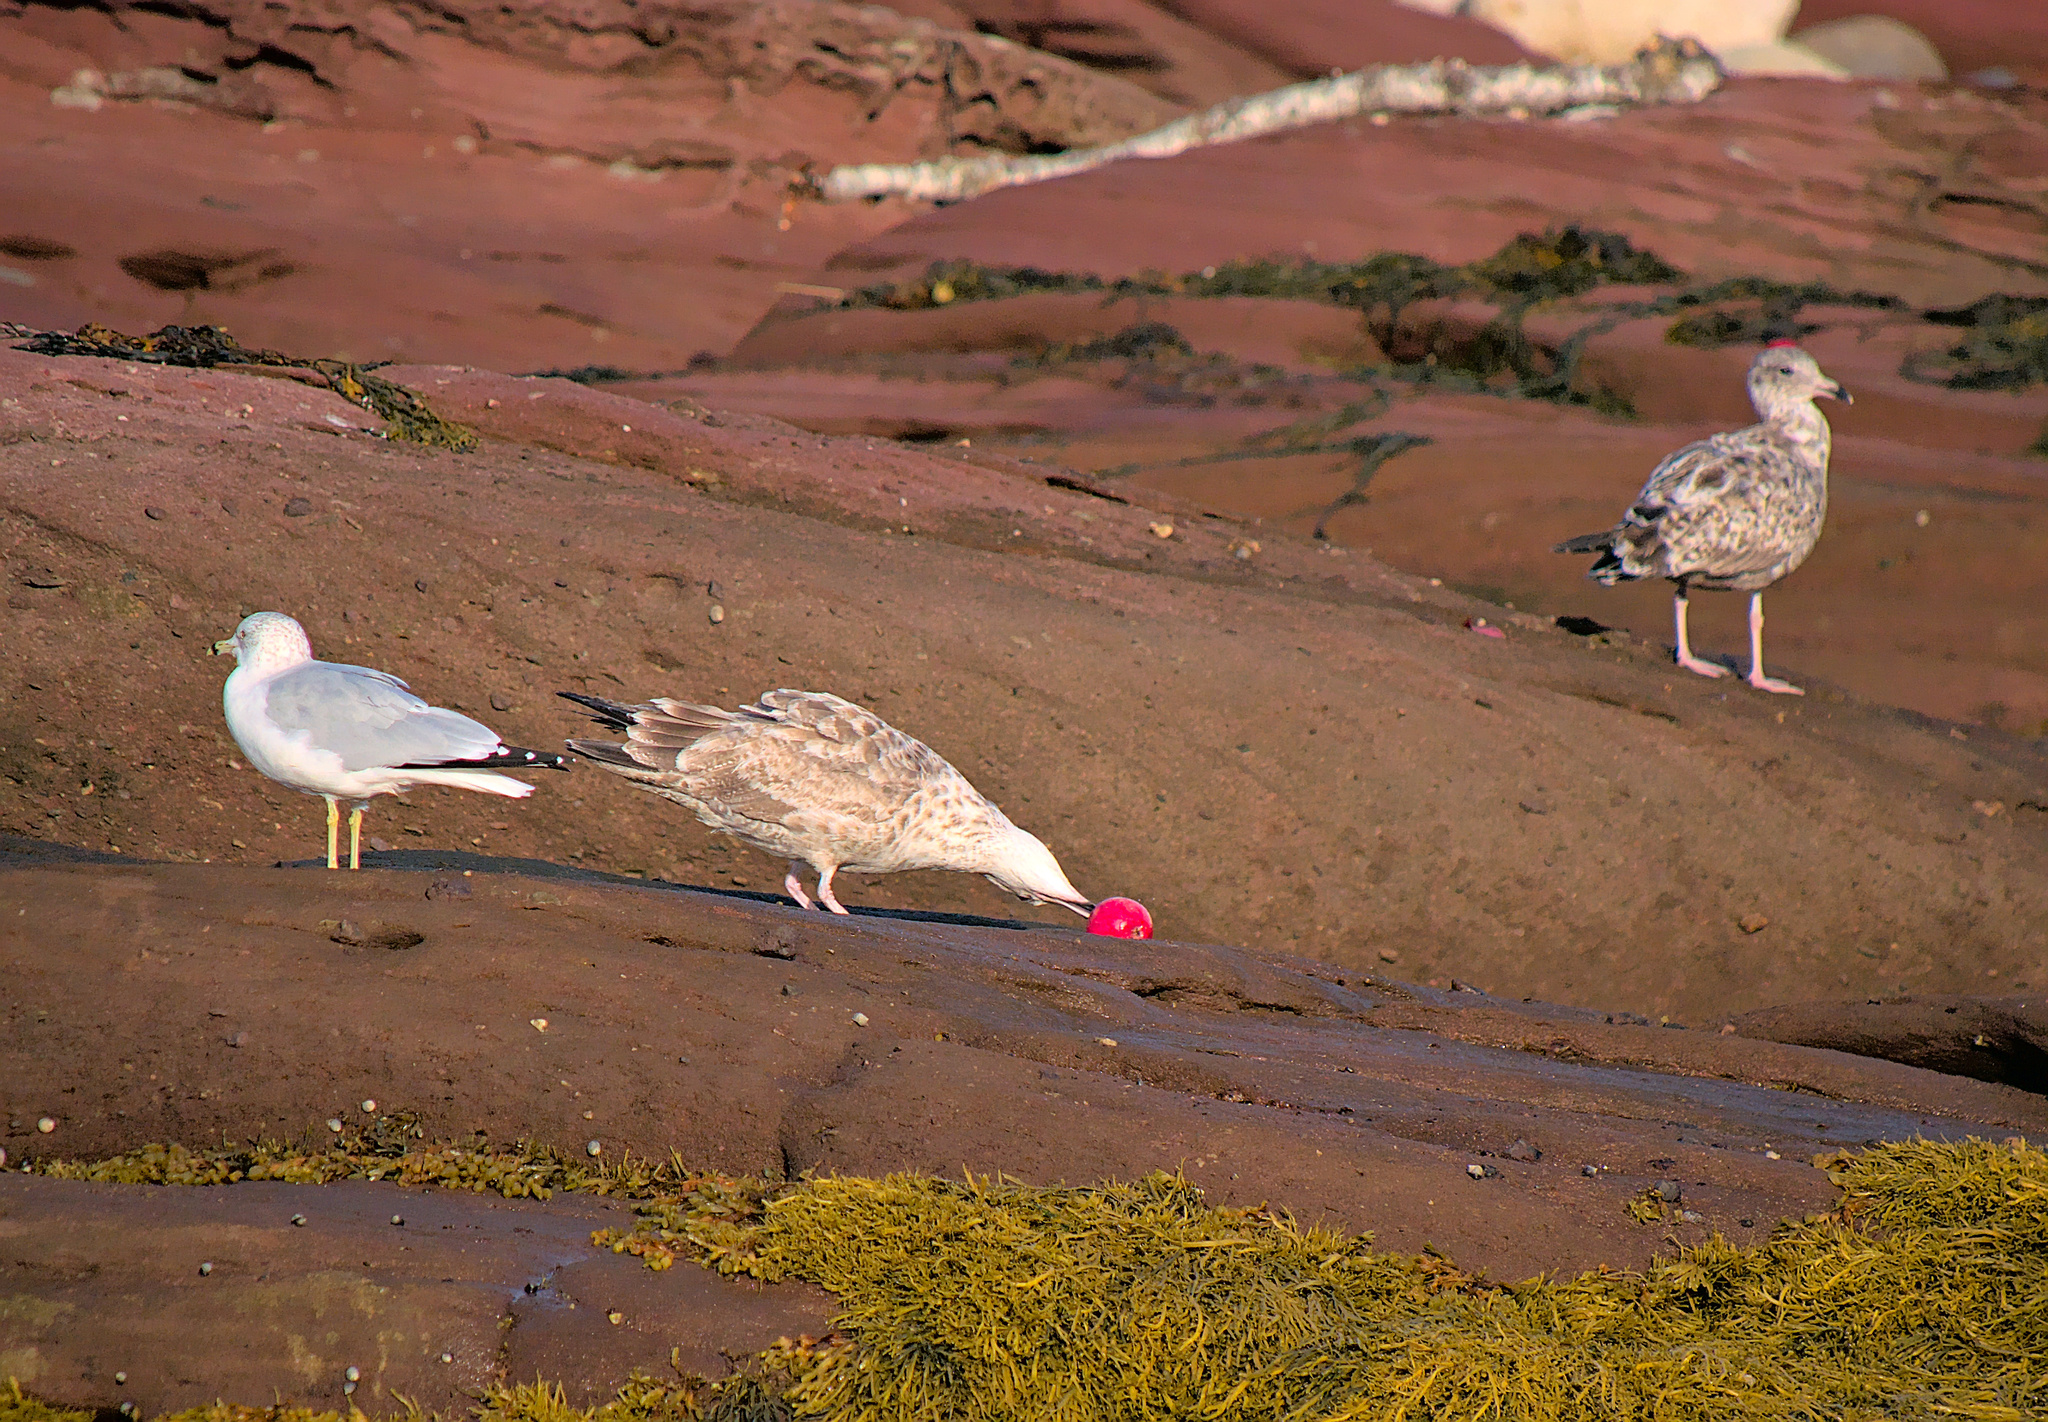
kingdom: Animalia
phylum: Chordata
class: Aves
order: Charadriiformes
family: Laridae
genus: Larus
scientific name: Larus argentatus
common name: Herring gull
